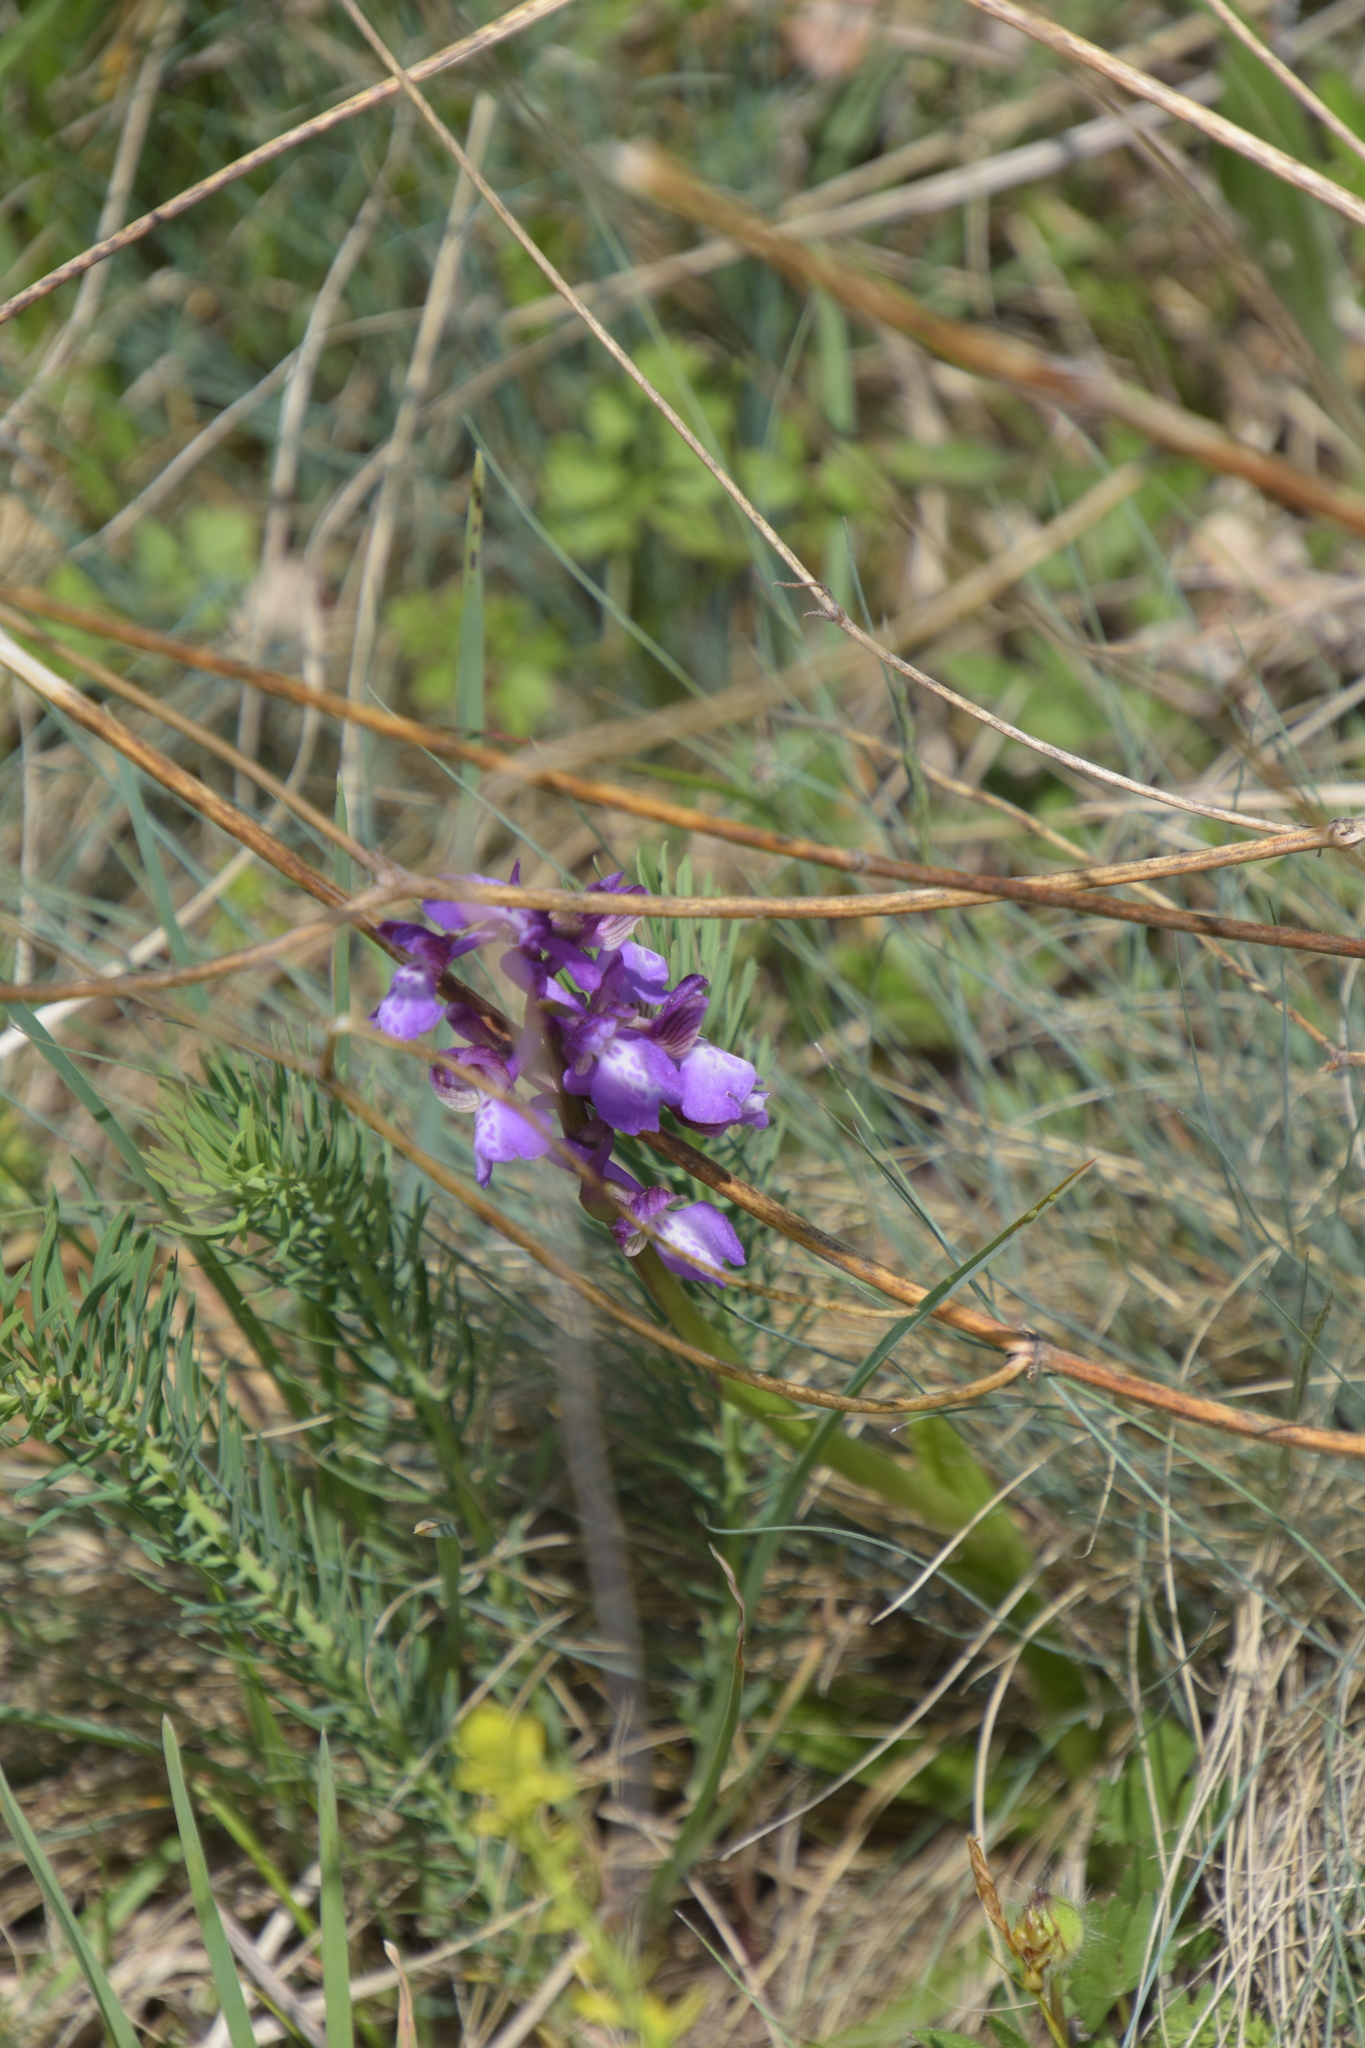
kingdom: Plantae
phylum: Tracheophyta
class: Liliopsida
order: Asparagales
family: Orchidaceae
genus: Anacamptis
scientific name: Anacamptis morio
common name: Green-winged orchid
